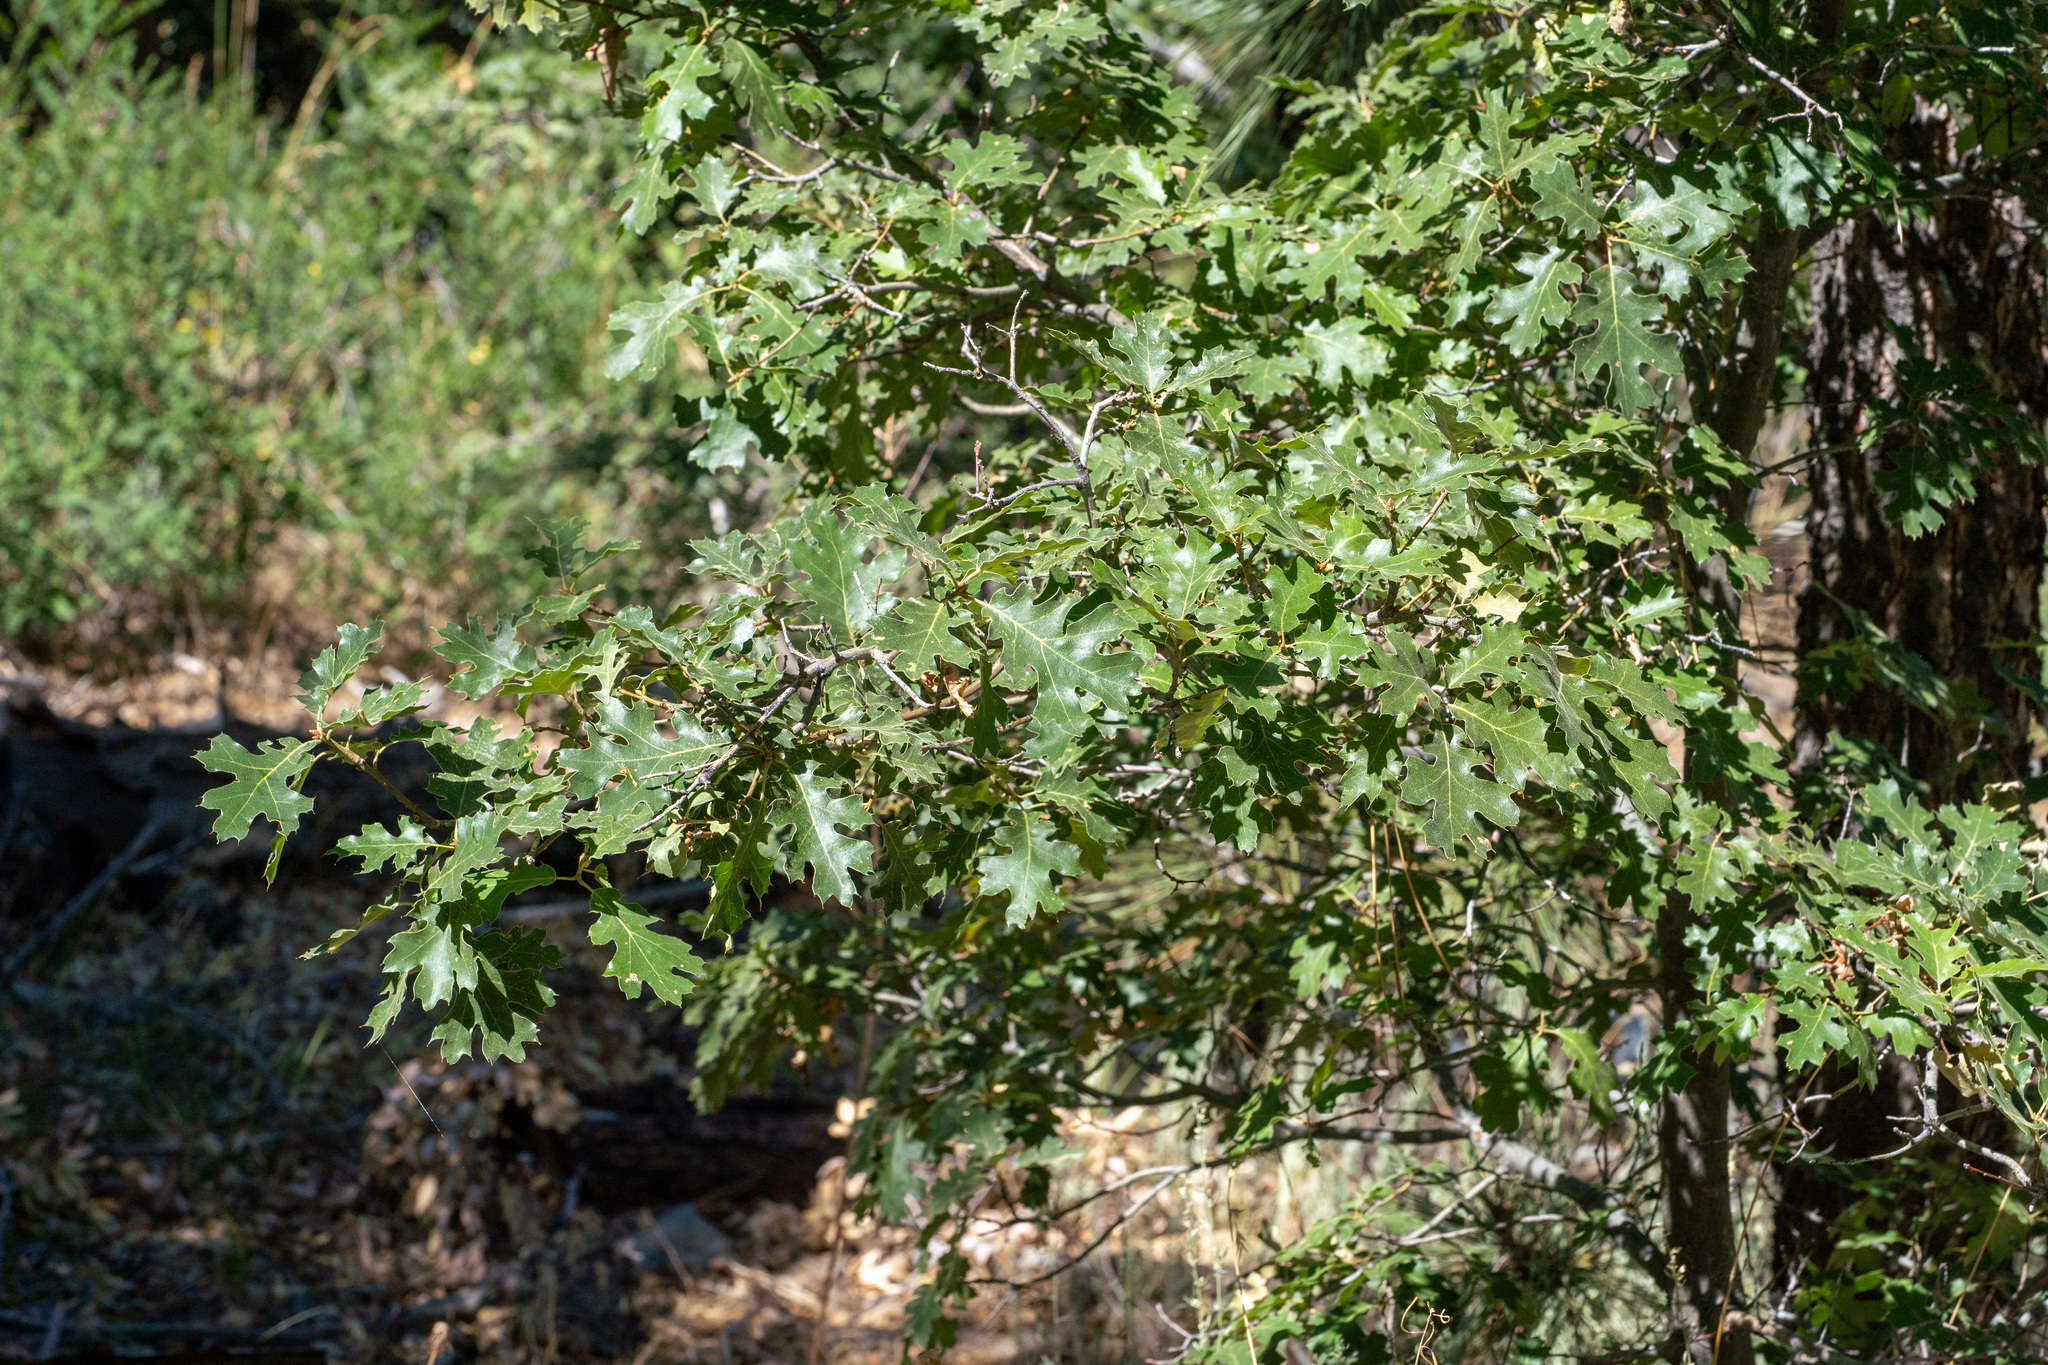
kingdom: Plantae
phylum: Tracheophyta
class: Magnoliopsida
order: Fagales
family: Fagaceae
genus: Quercus
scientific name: Quercus kelloggii
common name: California black oak
